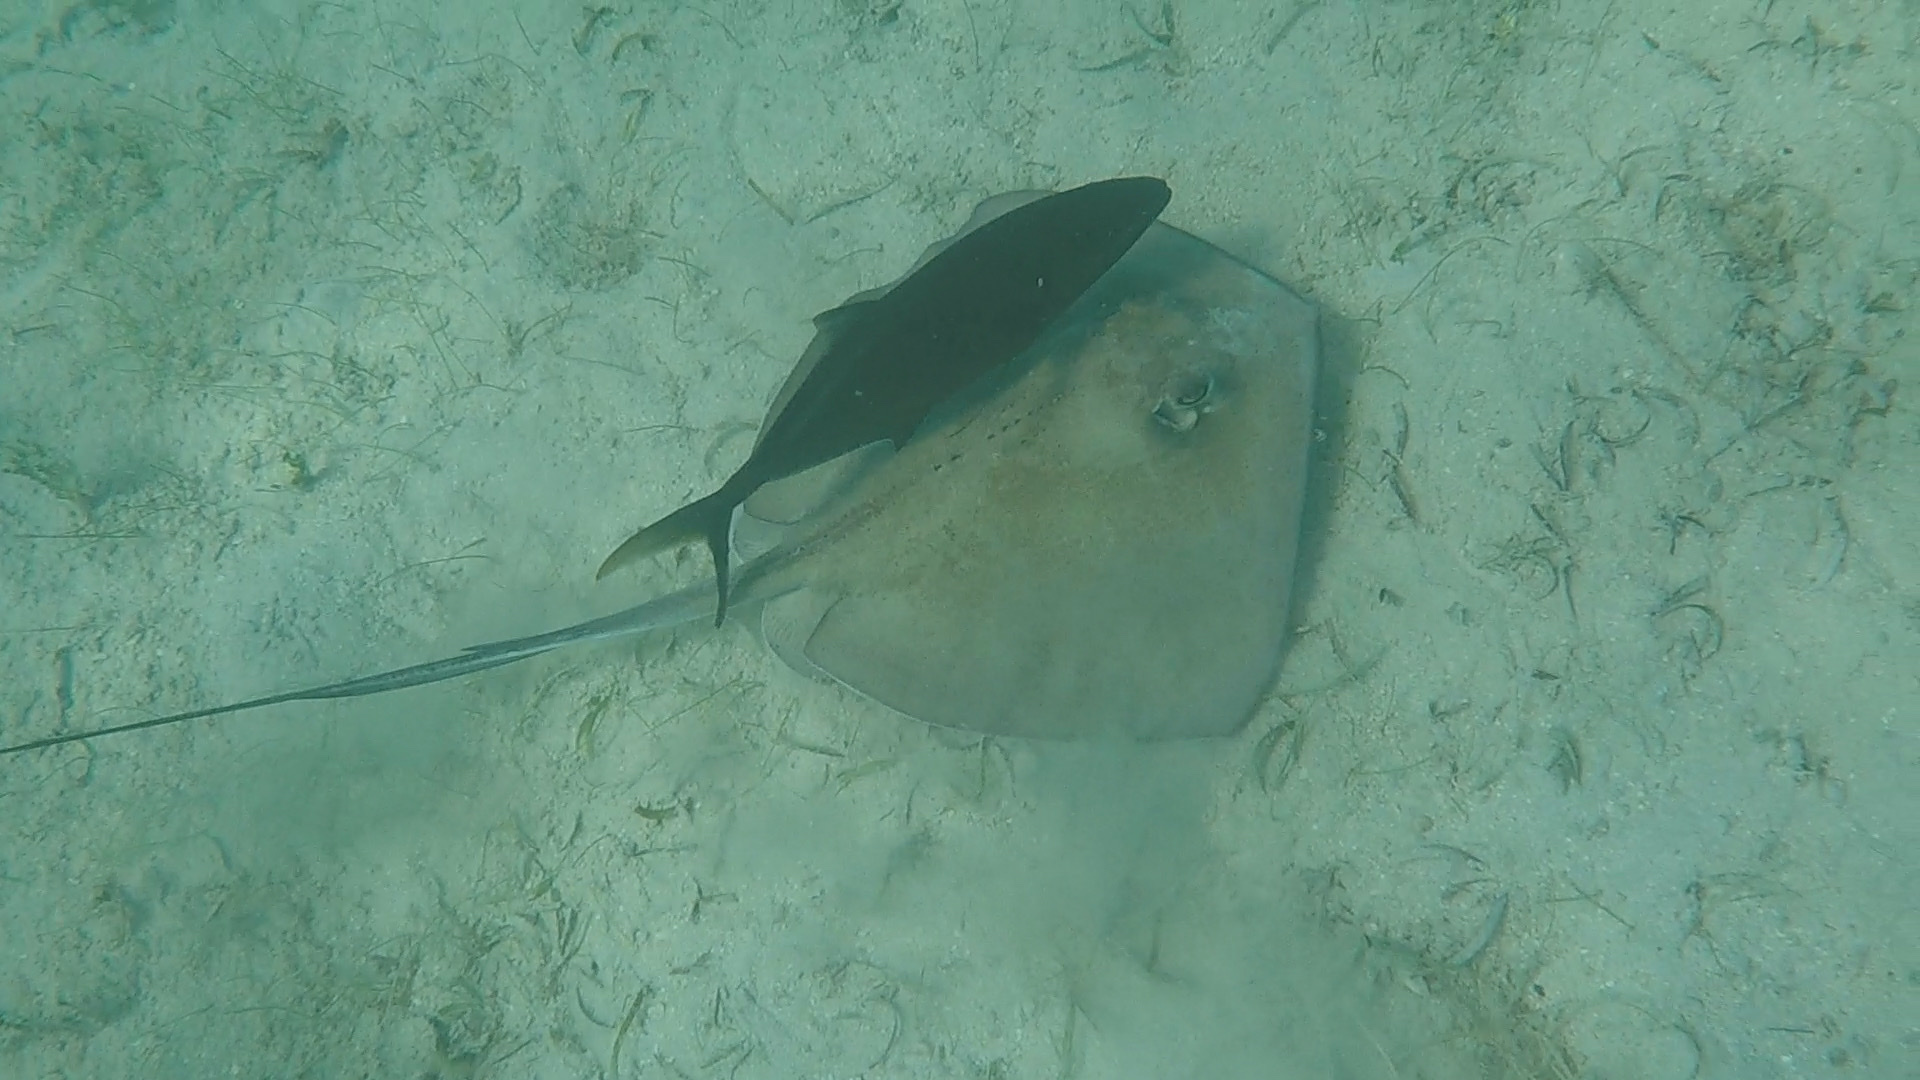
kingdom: Animalia
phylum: Chordata
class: Elasmobranchii
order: Myliobatiformes
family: Dasyatidae
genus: Hypanus
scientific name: Hypanus americanus
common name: Southern stingray
